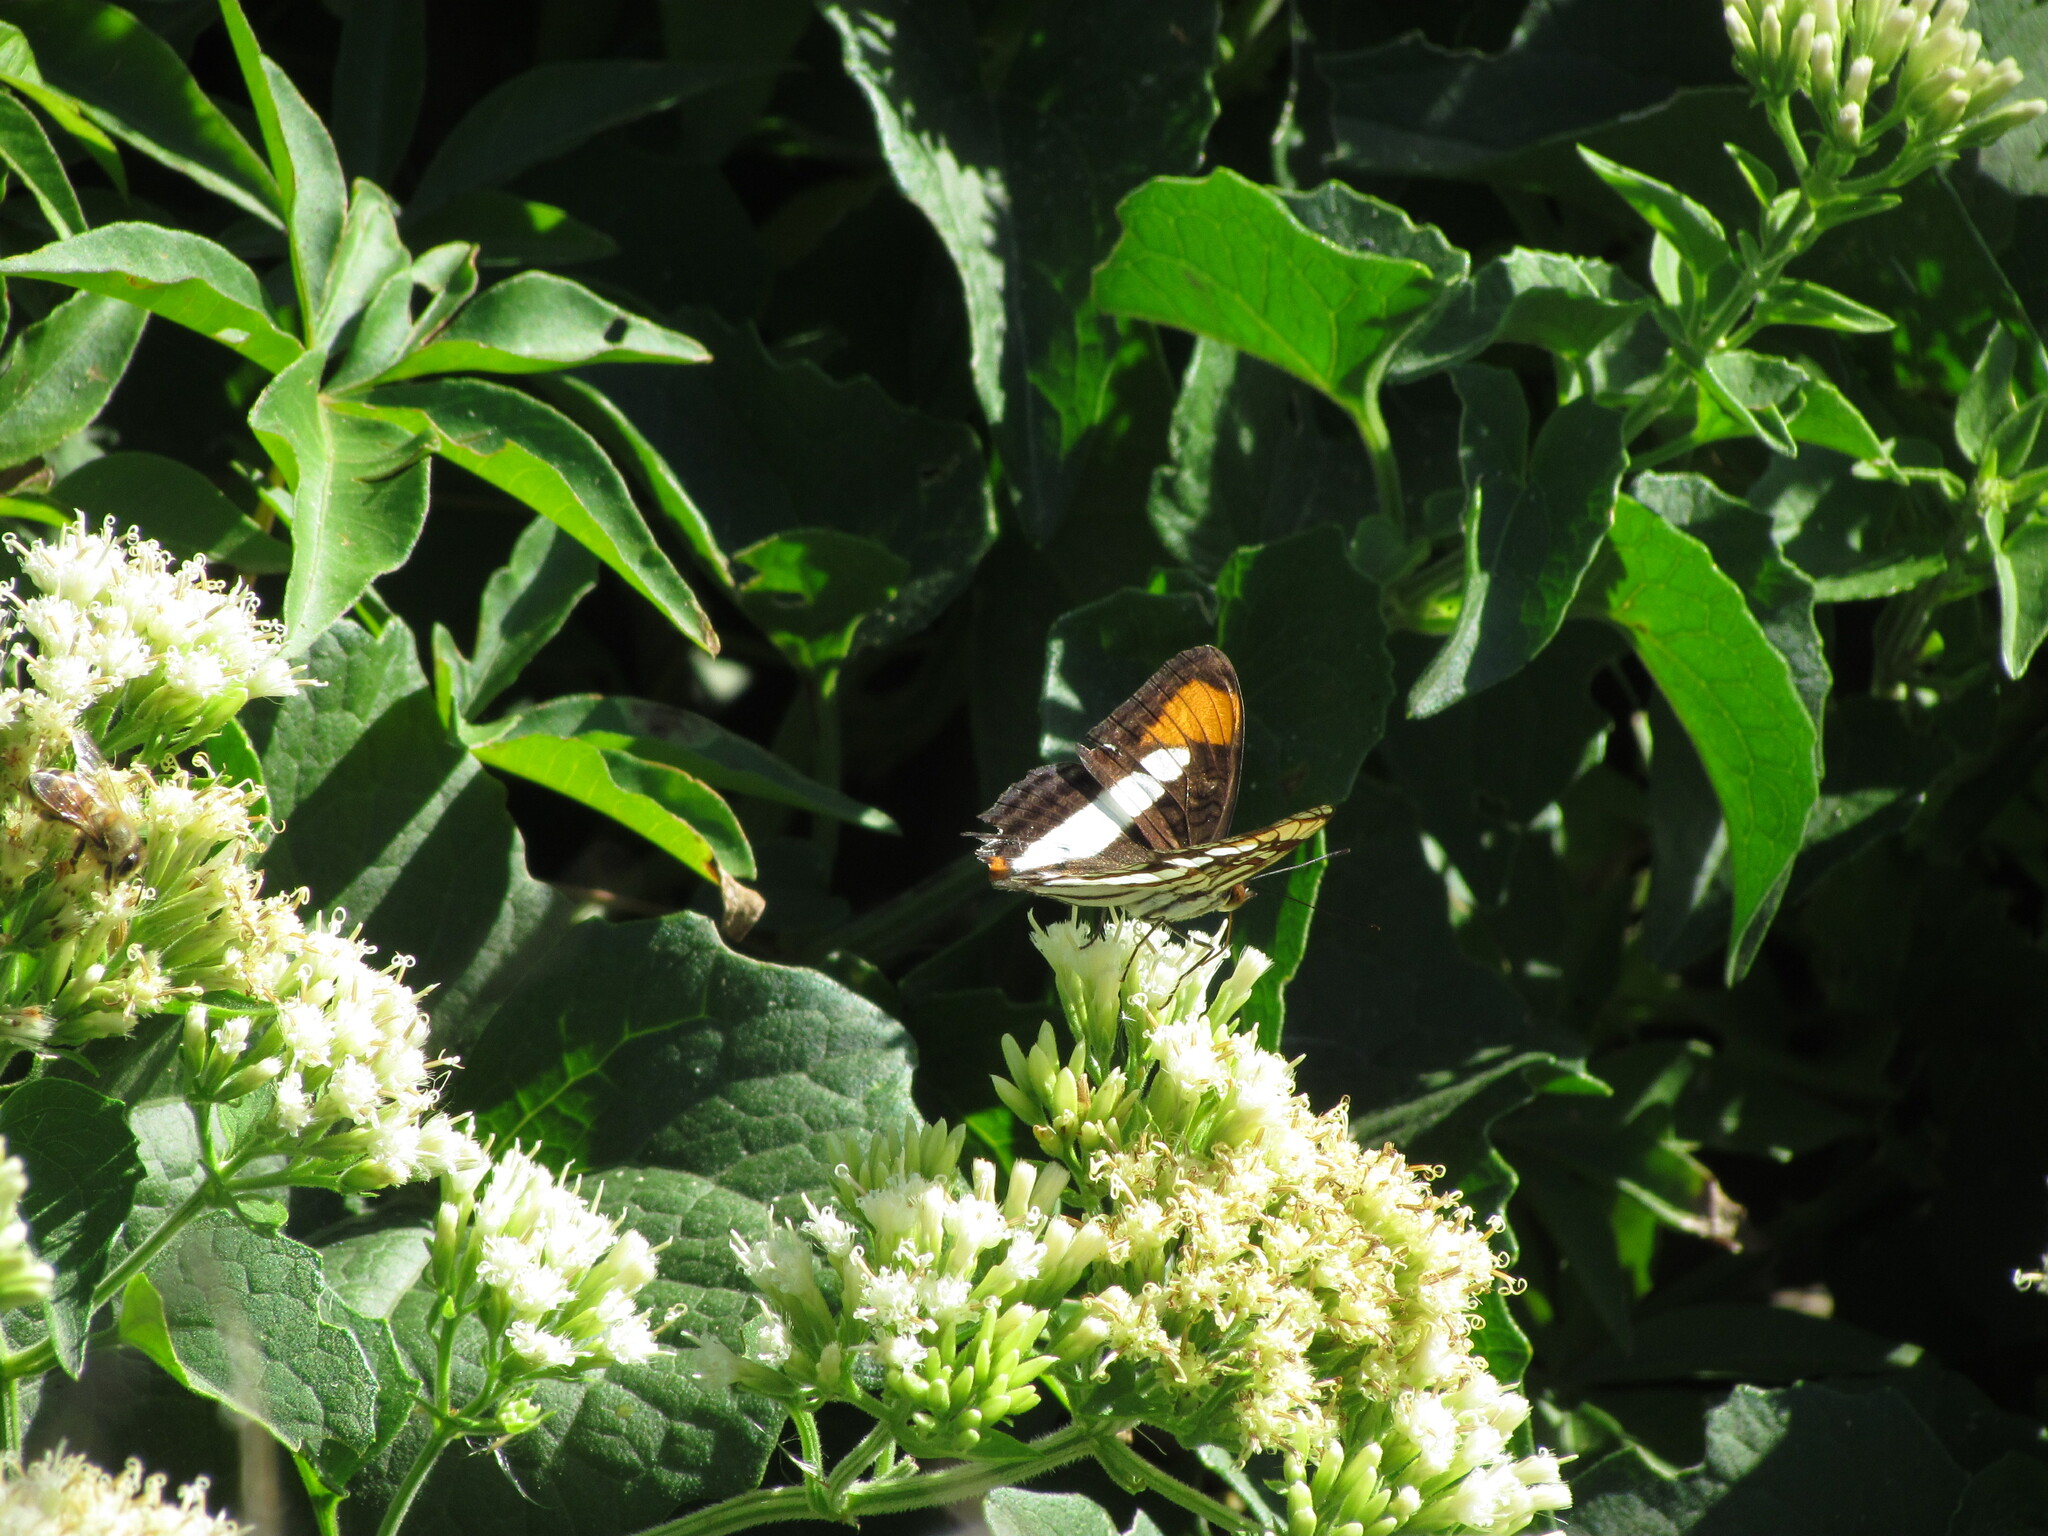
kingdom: Animalia
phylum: Arthropoda
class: Insecta
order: Lepidoptera
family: Nymphalidae
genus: Limenitis
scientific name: Limenitis zea
